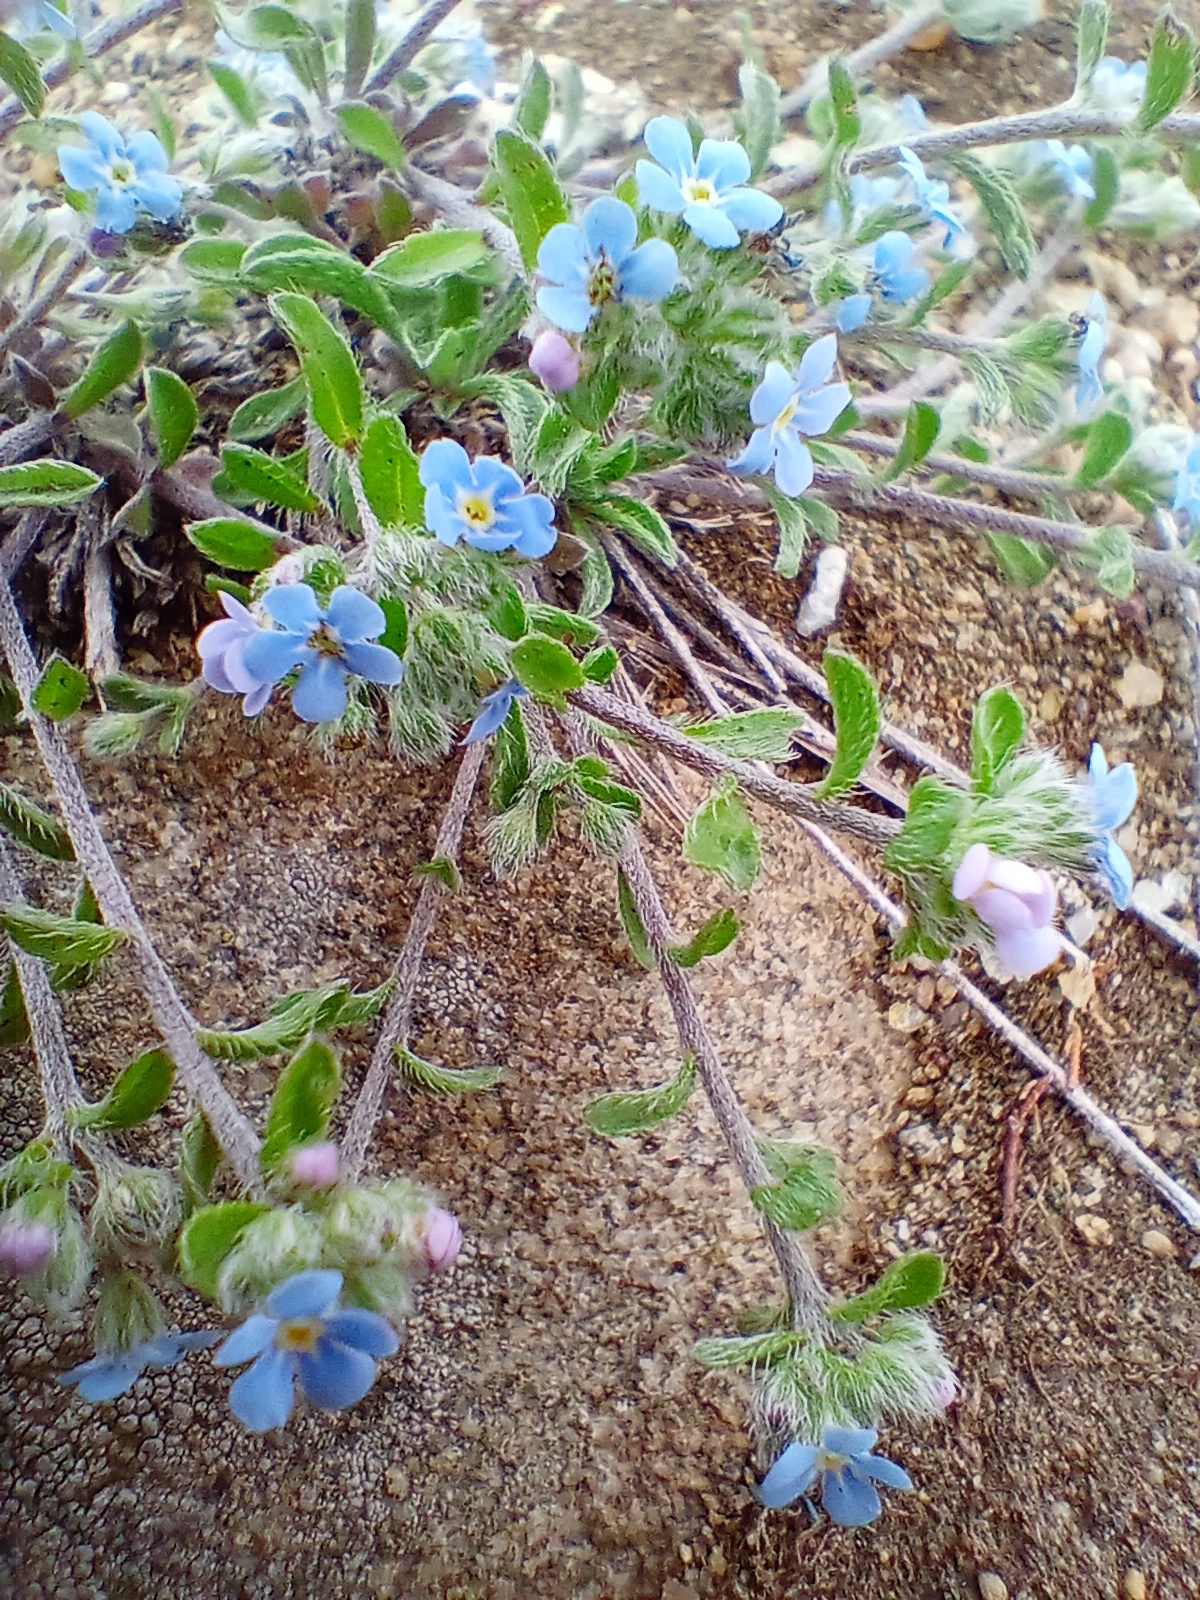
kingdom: Plantae
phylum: Tracheophyta
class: Magnoliopsida
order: Boraginales
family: Boraginaceae
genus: Eritrichium
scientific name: Eritrichium rupestre
